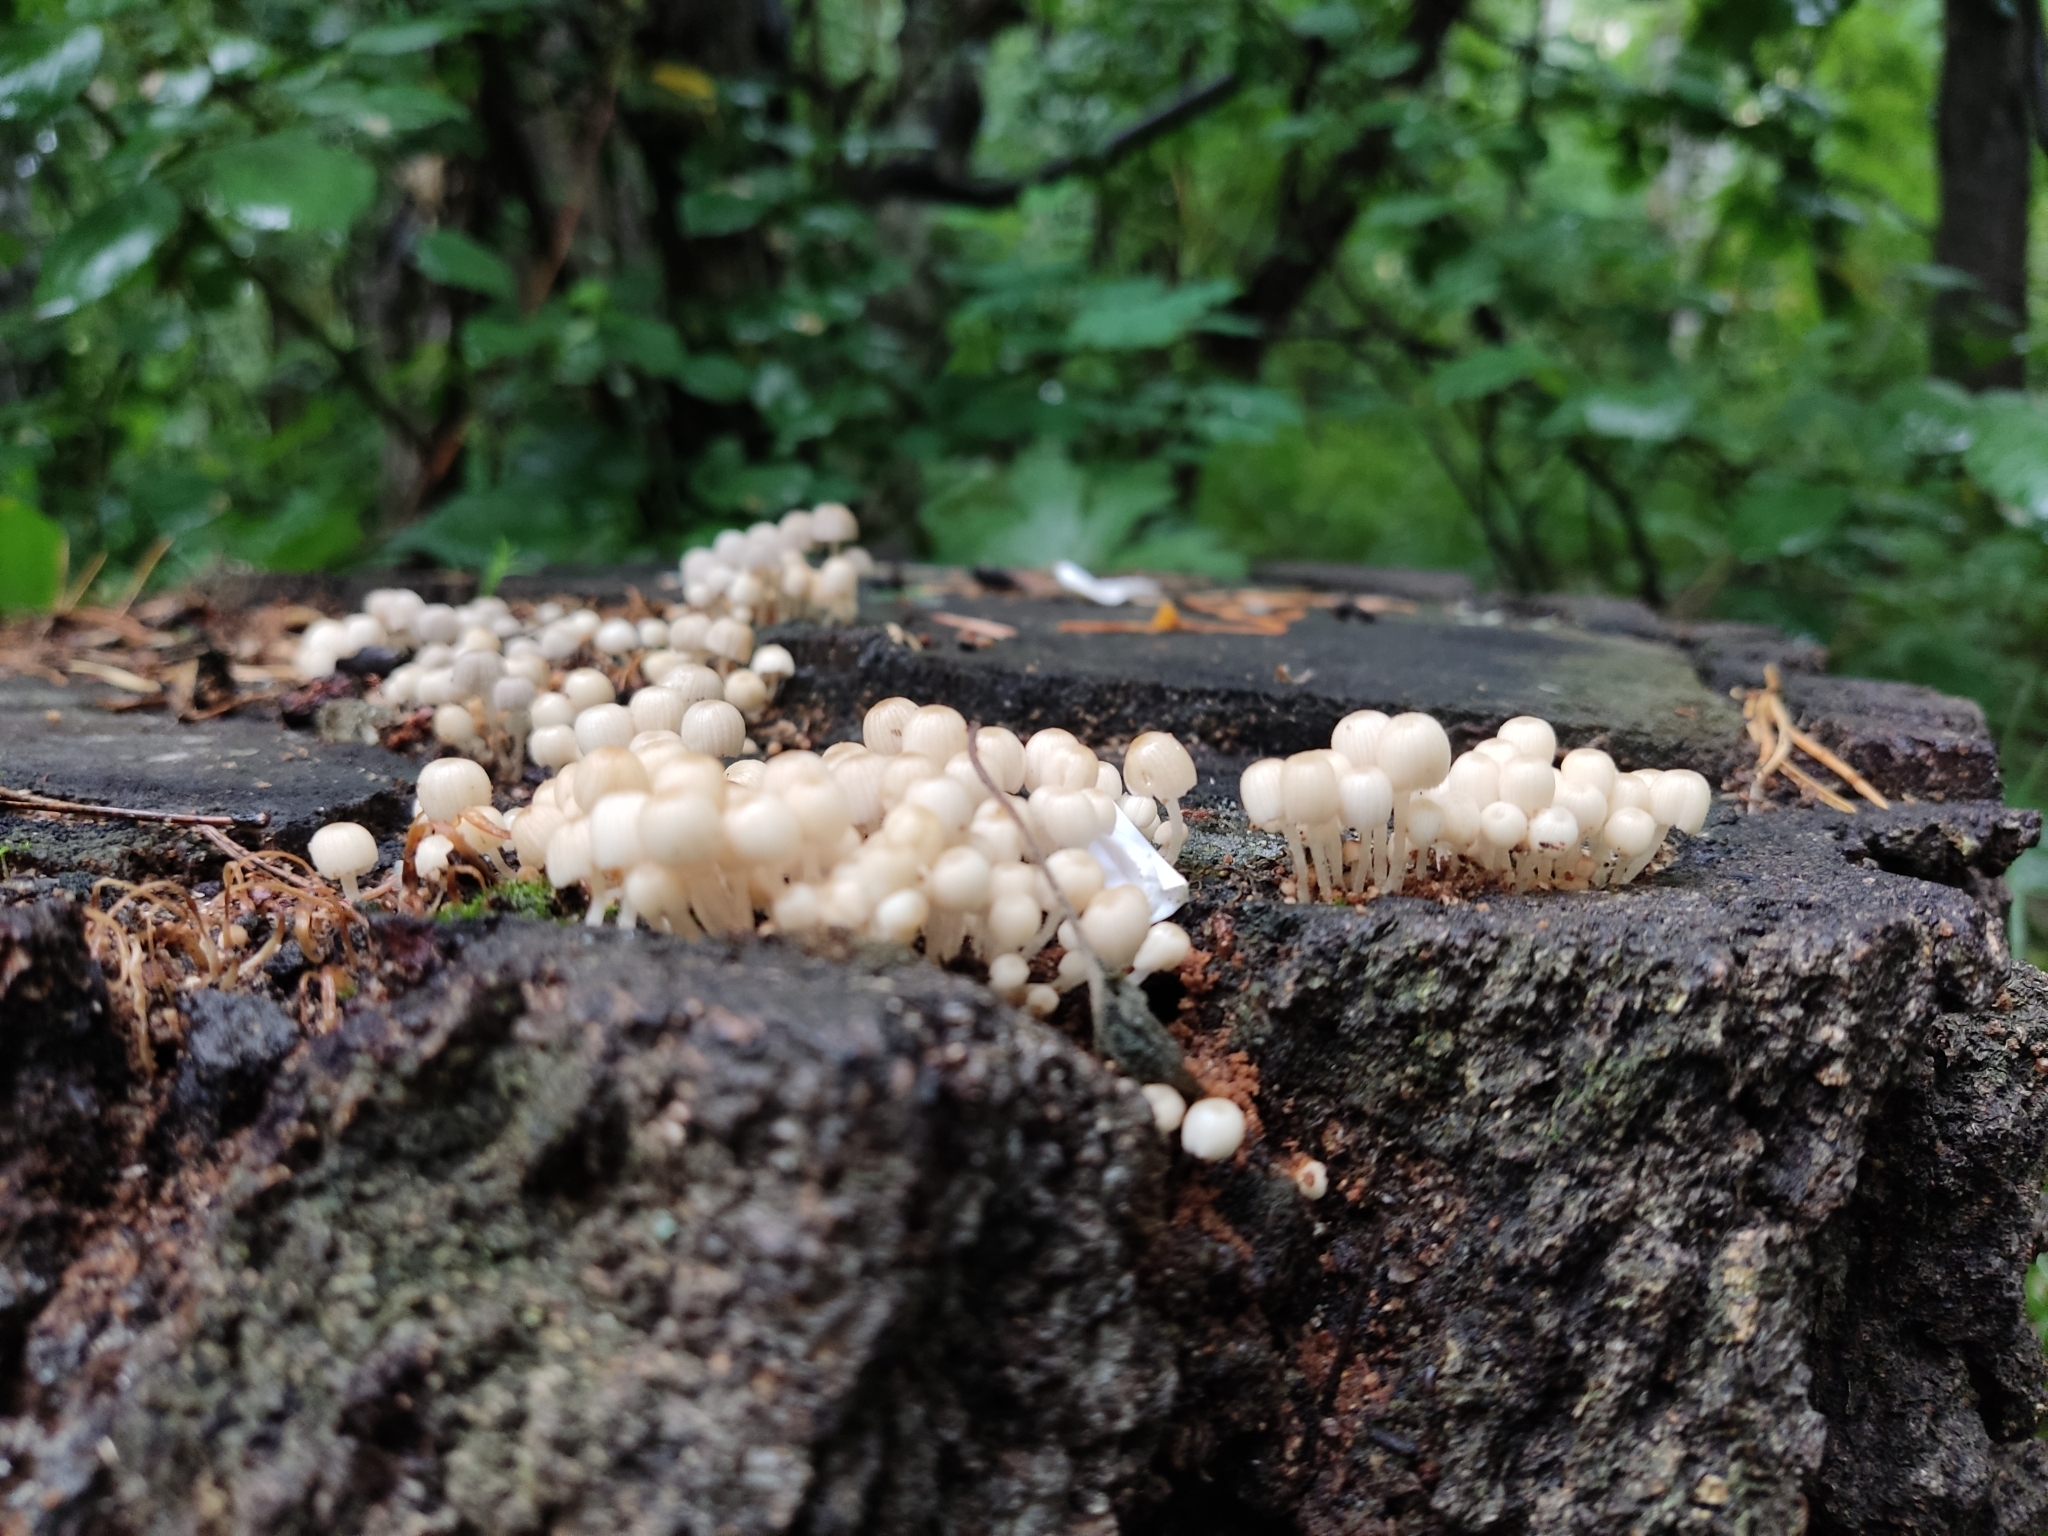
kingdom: Fungi
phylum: Basidiomycota
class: Agaricomycetes
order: Agaricales
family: Psathyrellaceae
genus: Coprinellus
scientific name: Coprinellus disseminatus
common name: Fairies' bonnets
